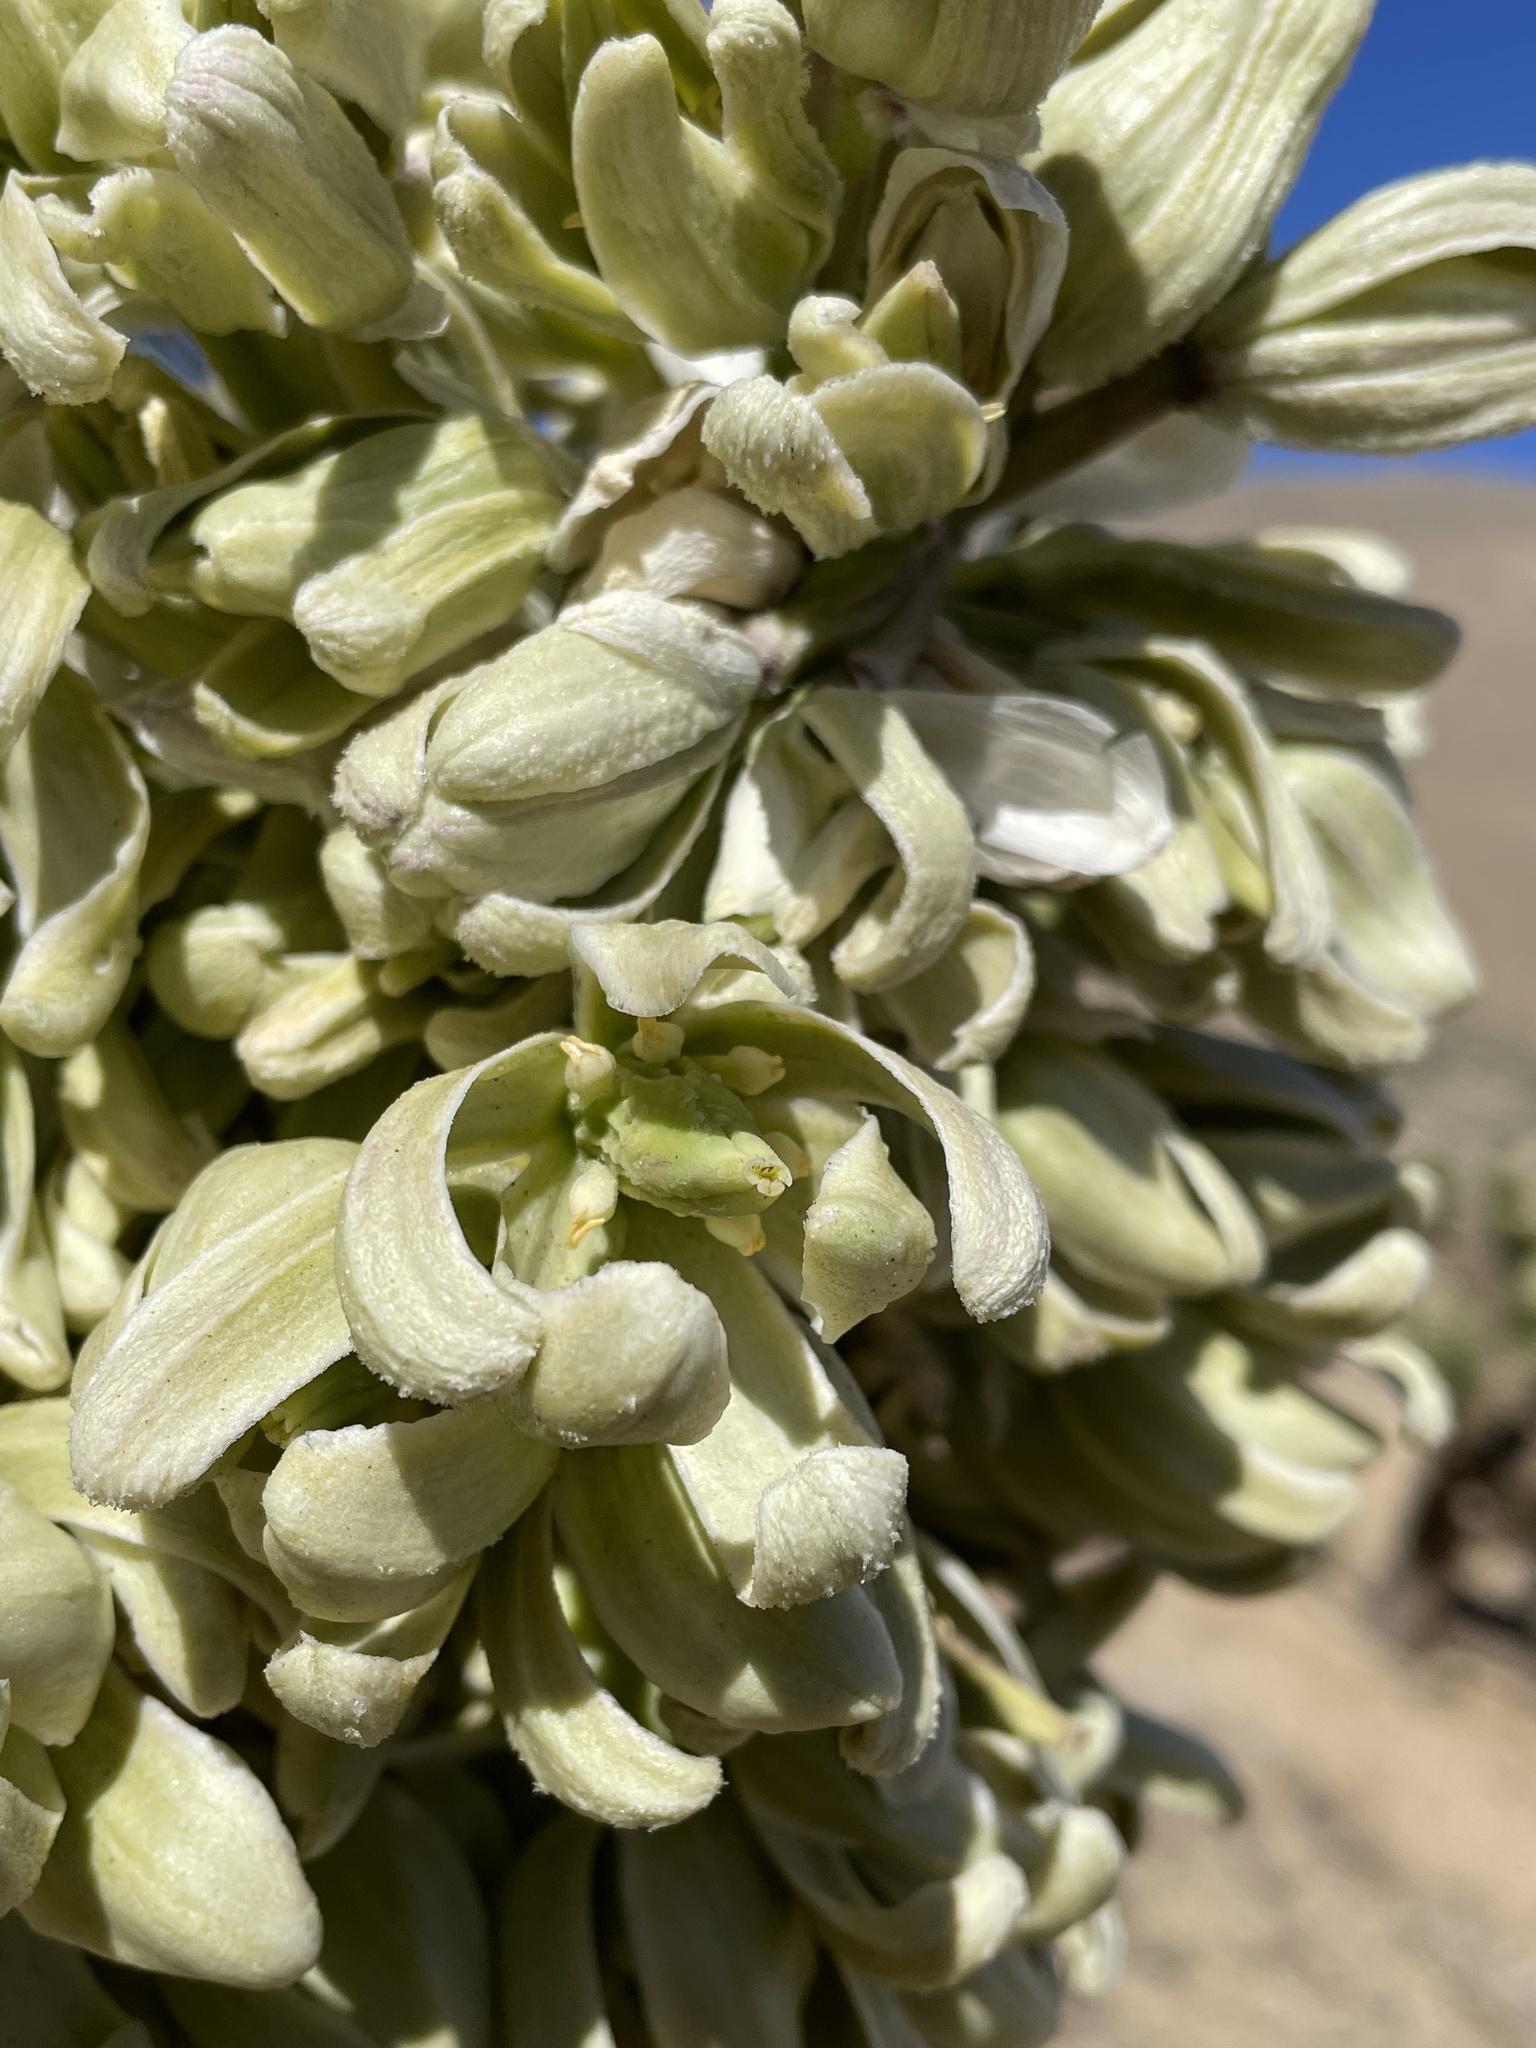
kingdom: Plantae
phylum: Tracheophyta
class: Liliopsida
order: Asparagales
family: Asparagaceae
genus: Yucca
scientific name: Yucca brevifolia
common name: Joshua tree
